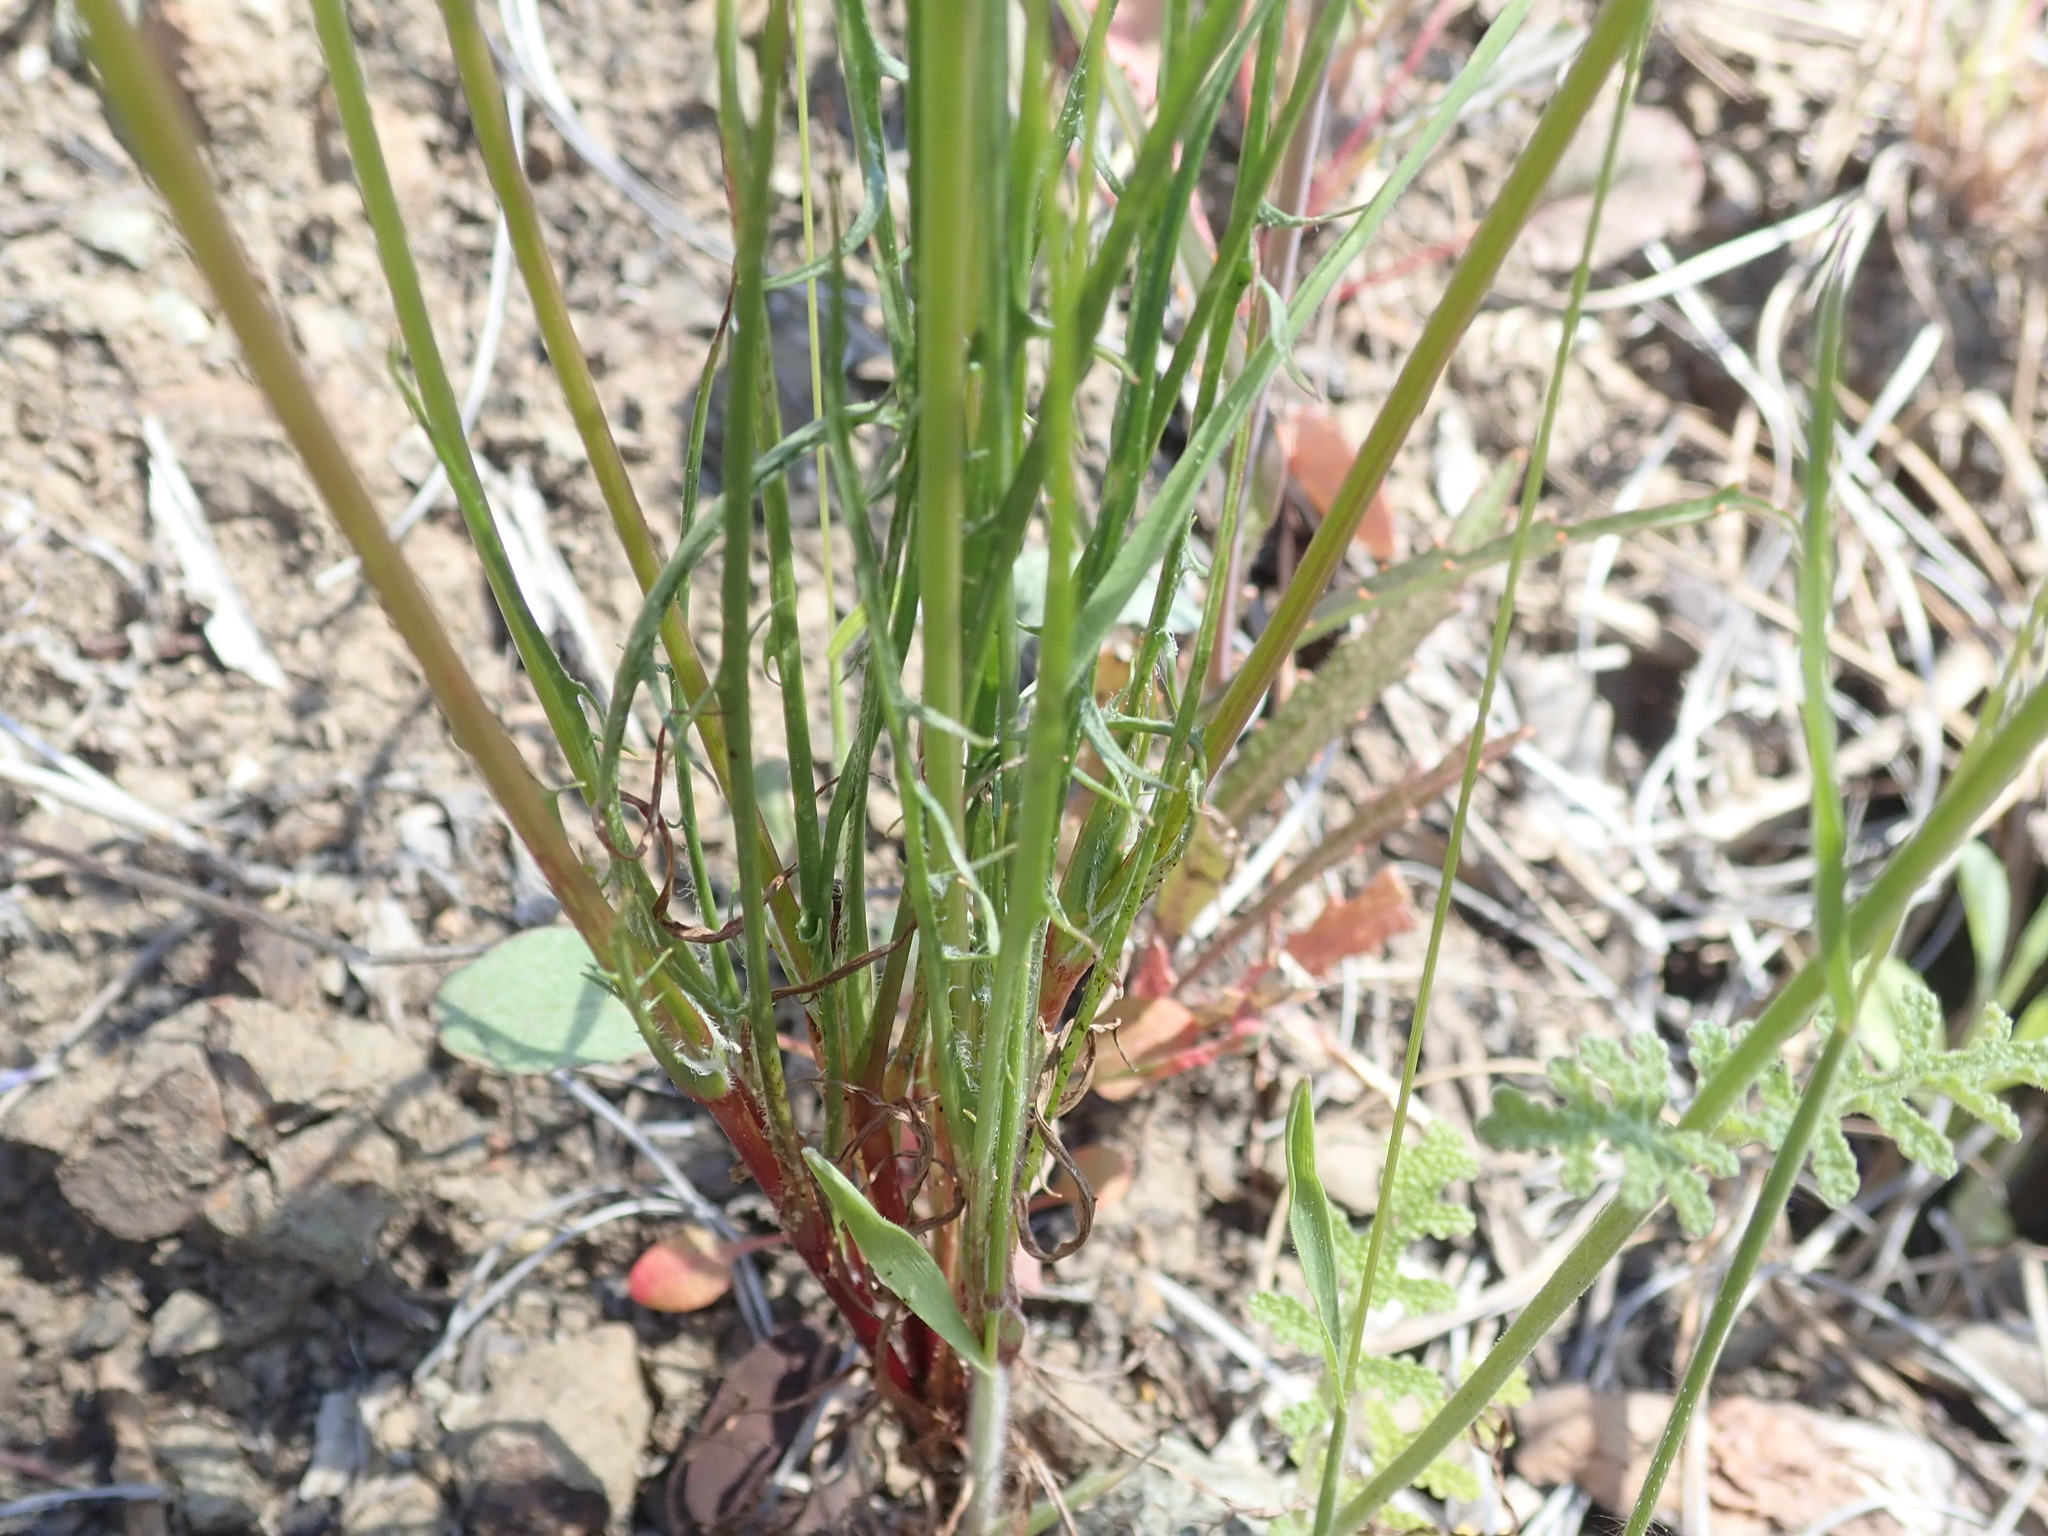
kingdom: Plantae
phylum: Tracheophyta
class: Magnoliopsida
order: Asterales
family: Asteraceae
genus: Microseris
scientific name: Microseris lindleyi
